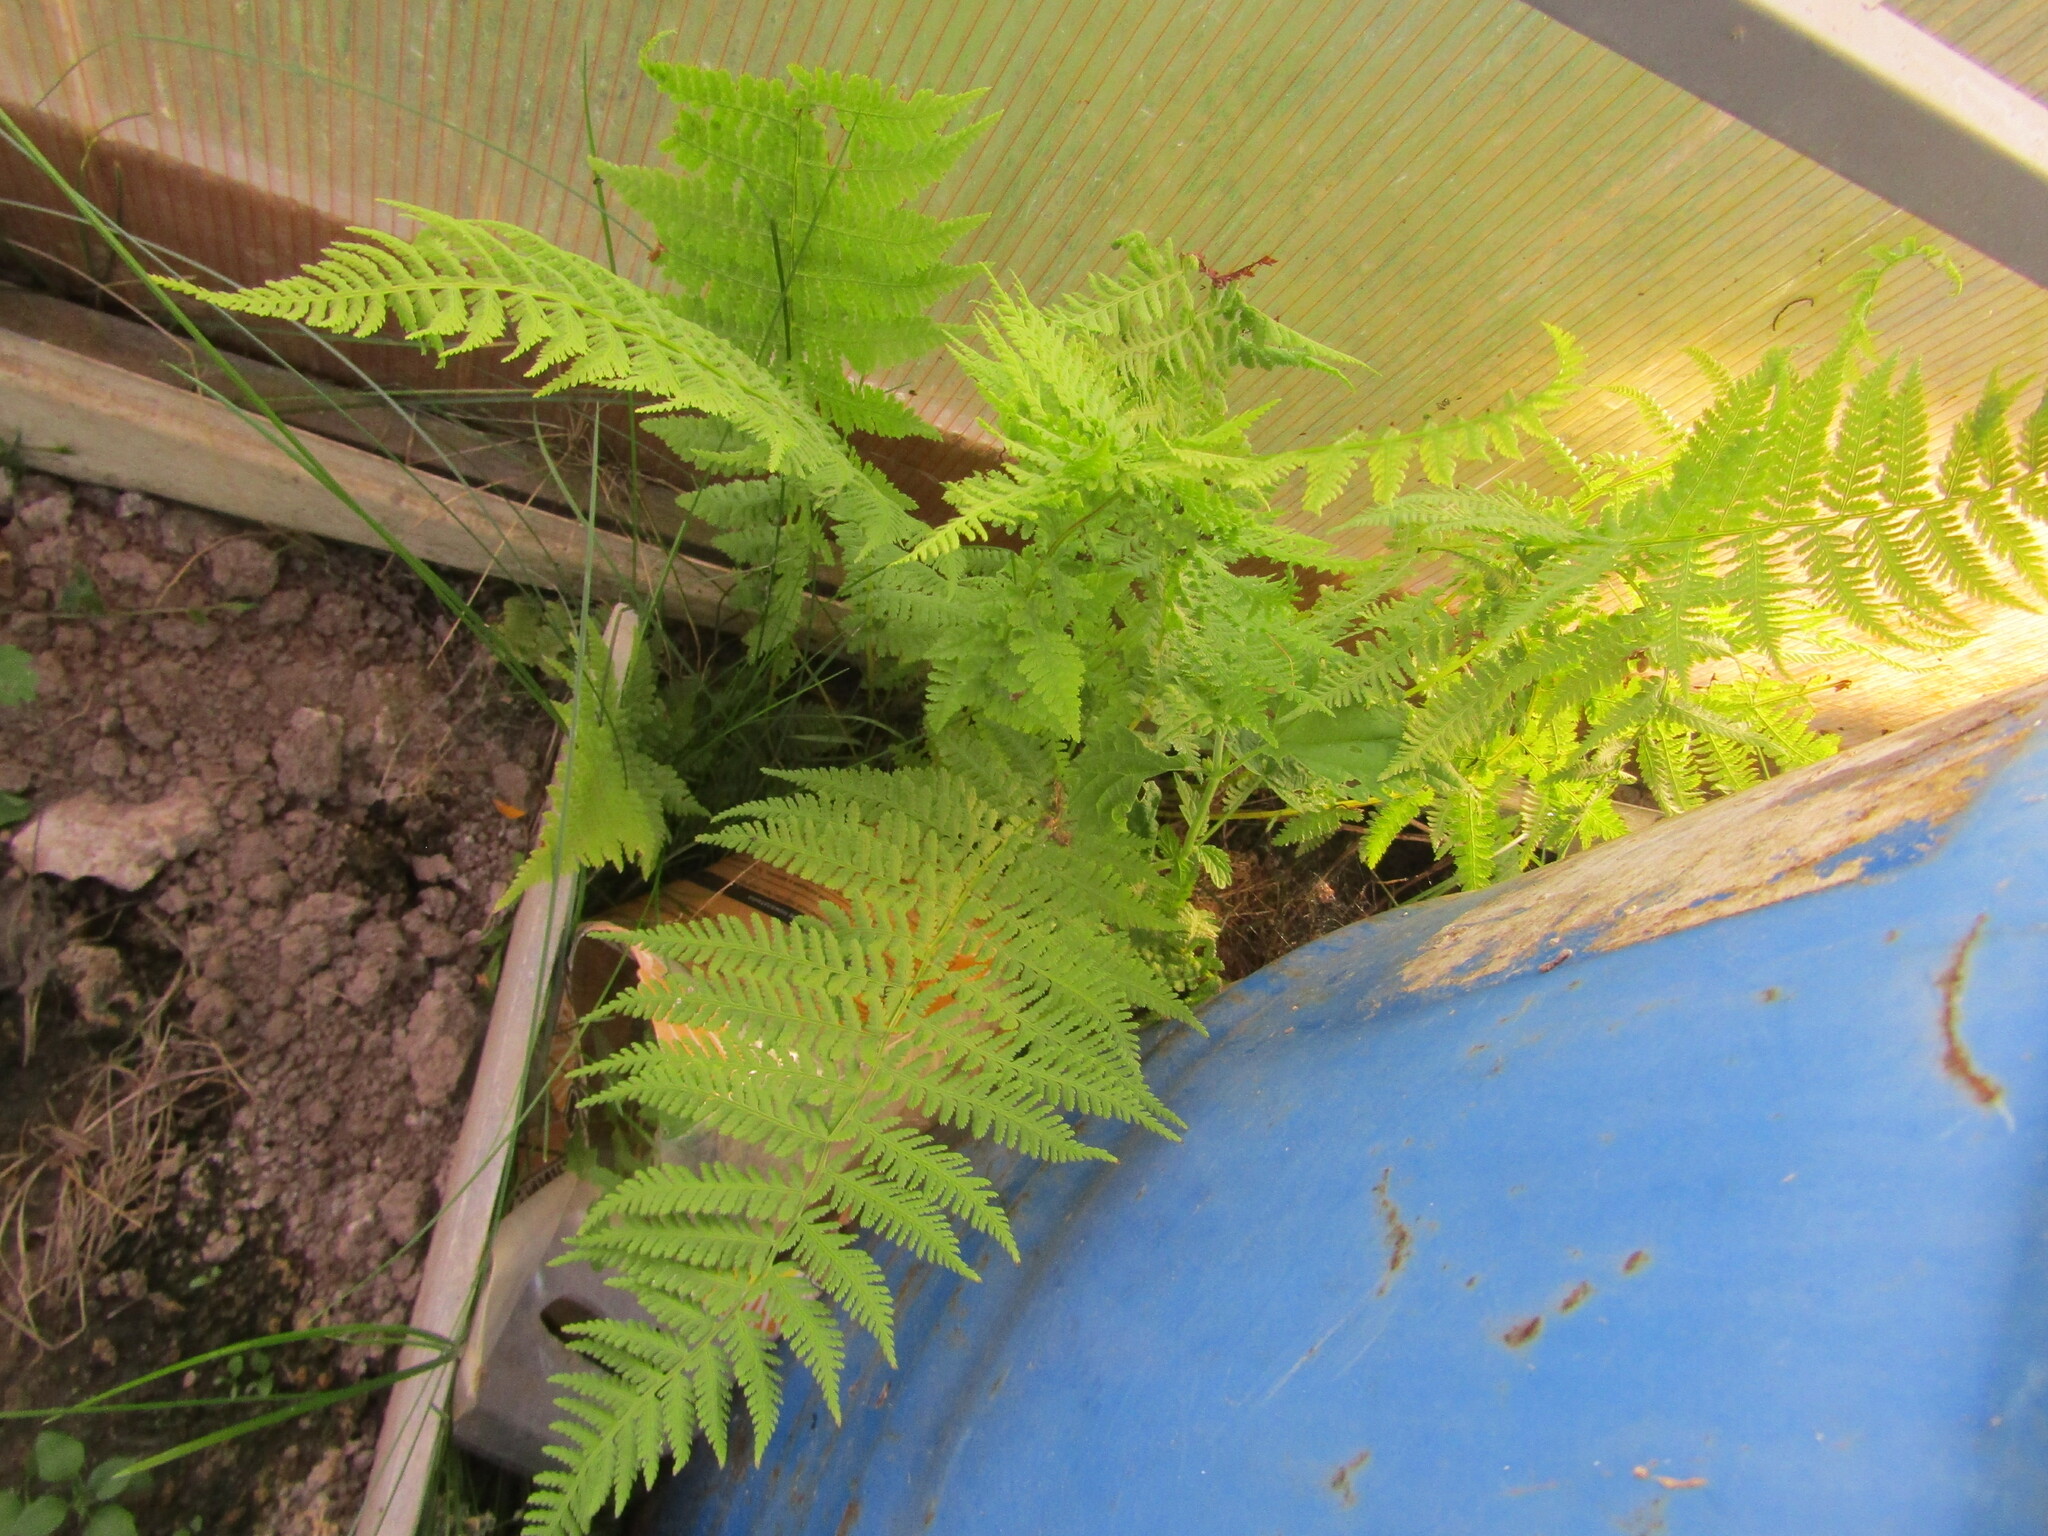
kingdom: Plantae
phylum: Tracheophyta
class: Polypodiopsida
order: Polypodiales
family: Athyriaceae
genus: Athyrium
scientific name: Athyrium filix-femina
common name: Lady fern
